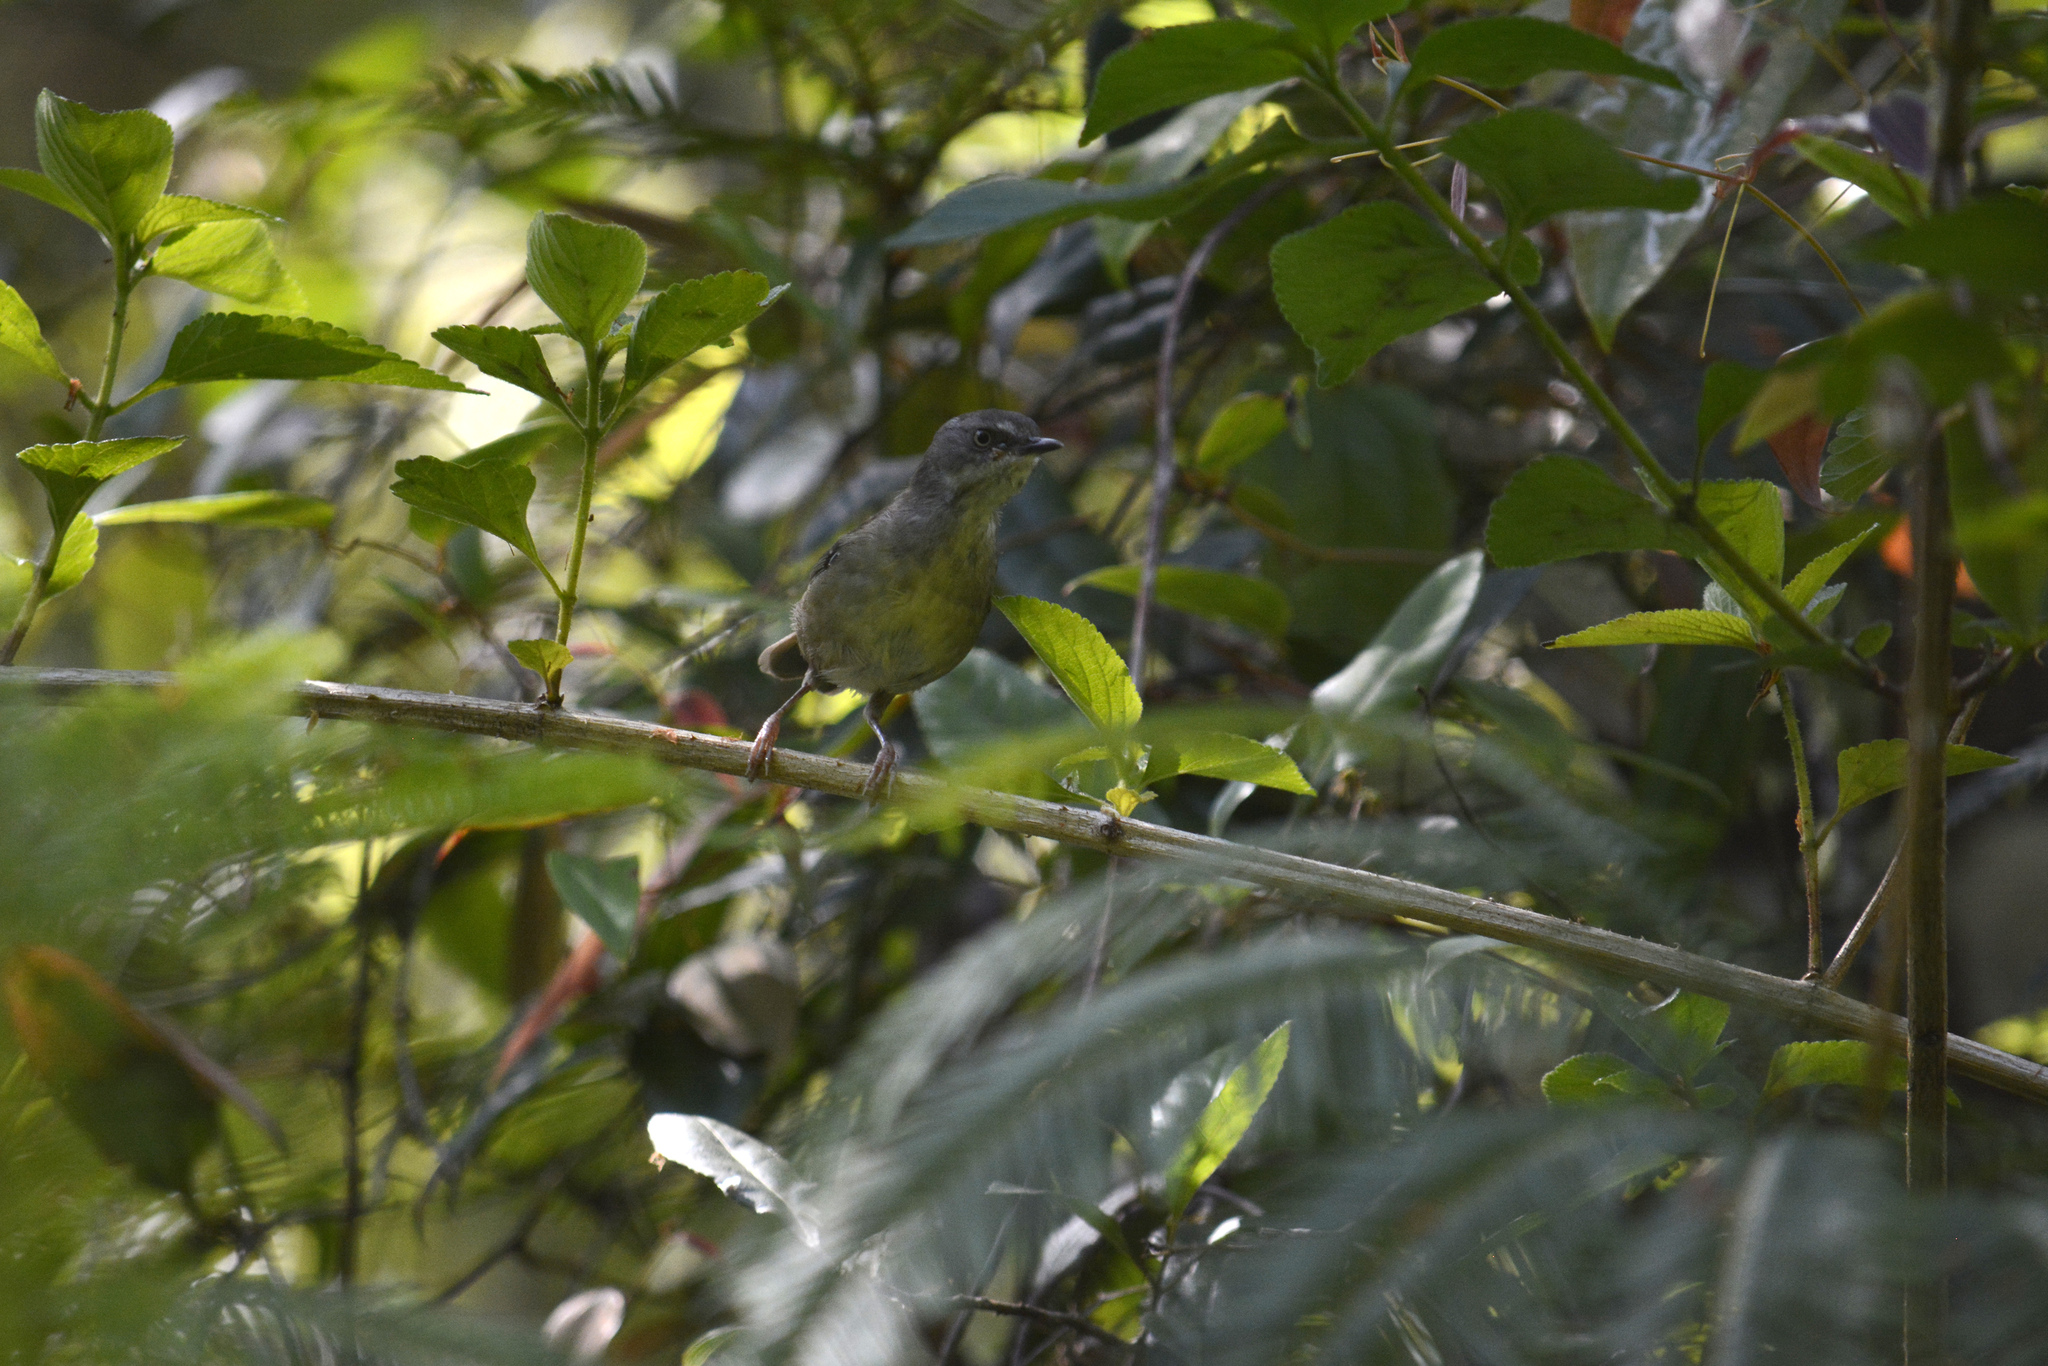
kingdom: Animalia
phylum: Chordata
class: Aves
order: Passeriformes
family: Acanthizidae
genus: Sericornis
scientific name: Sericornis frontalis
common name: White-browed scrubwren
